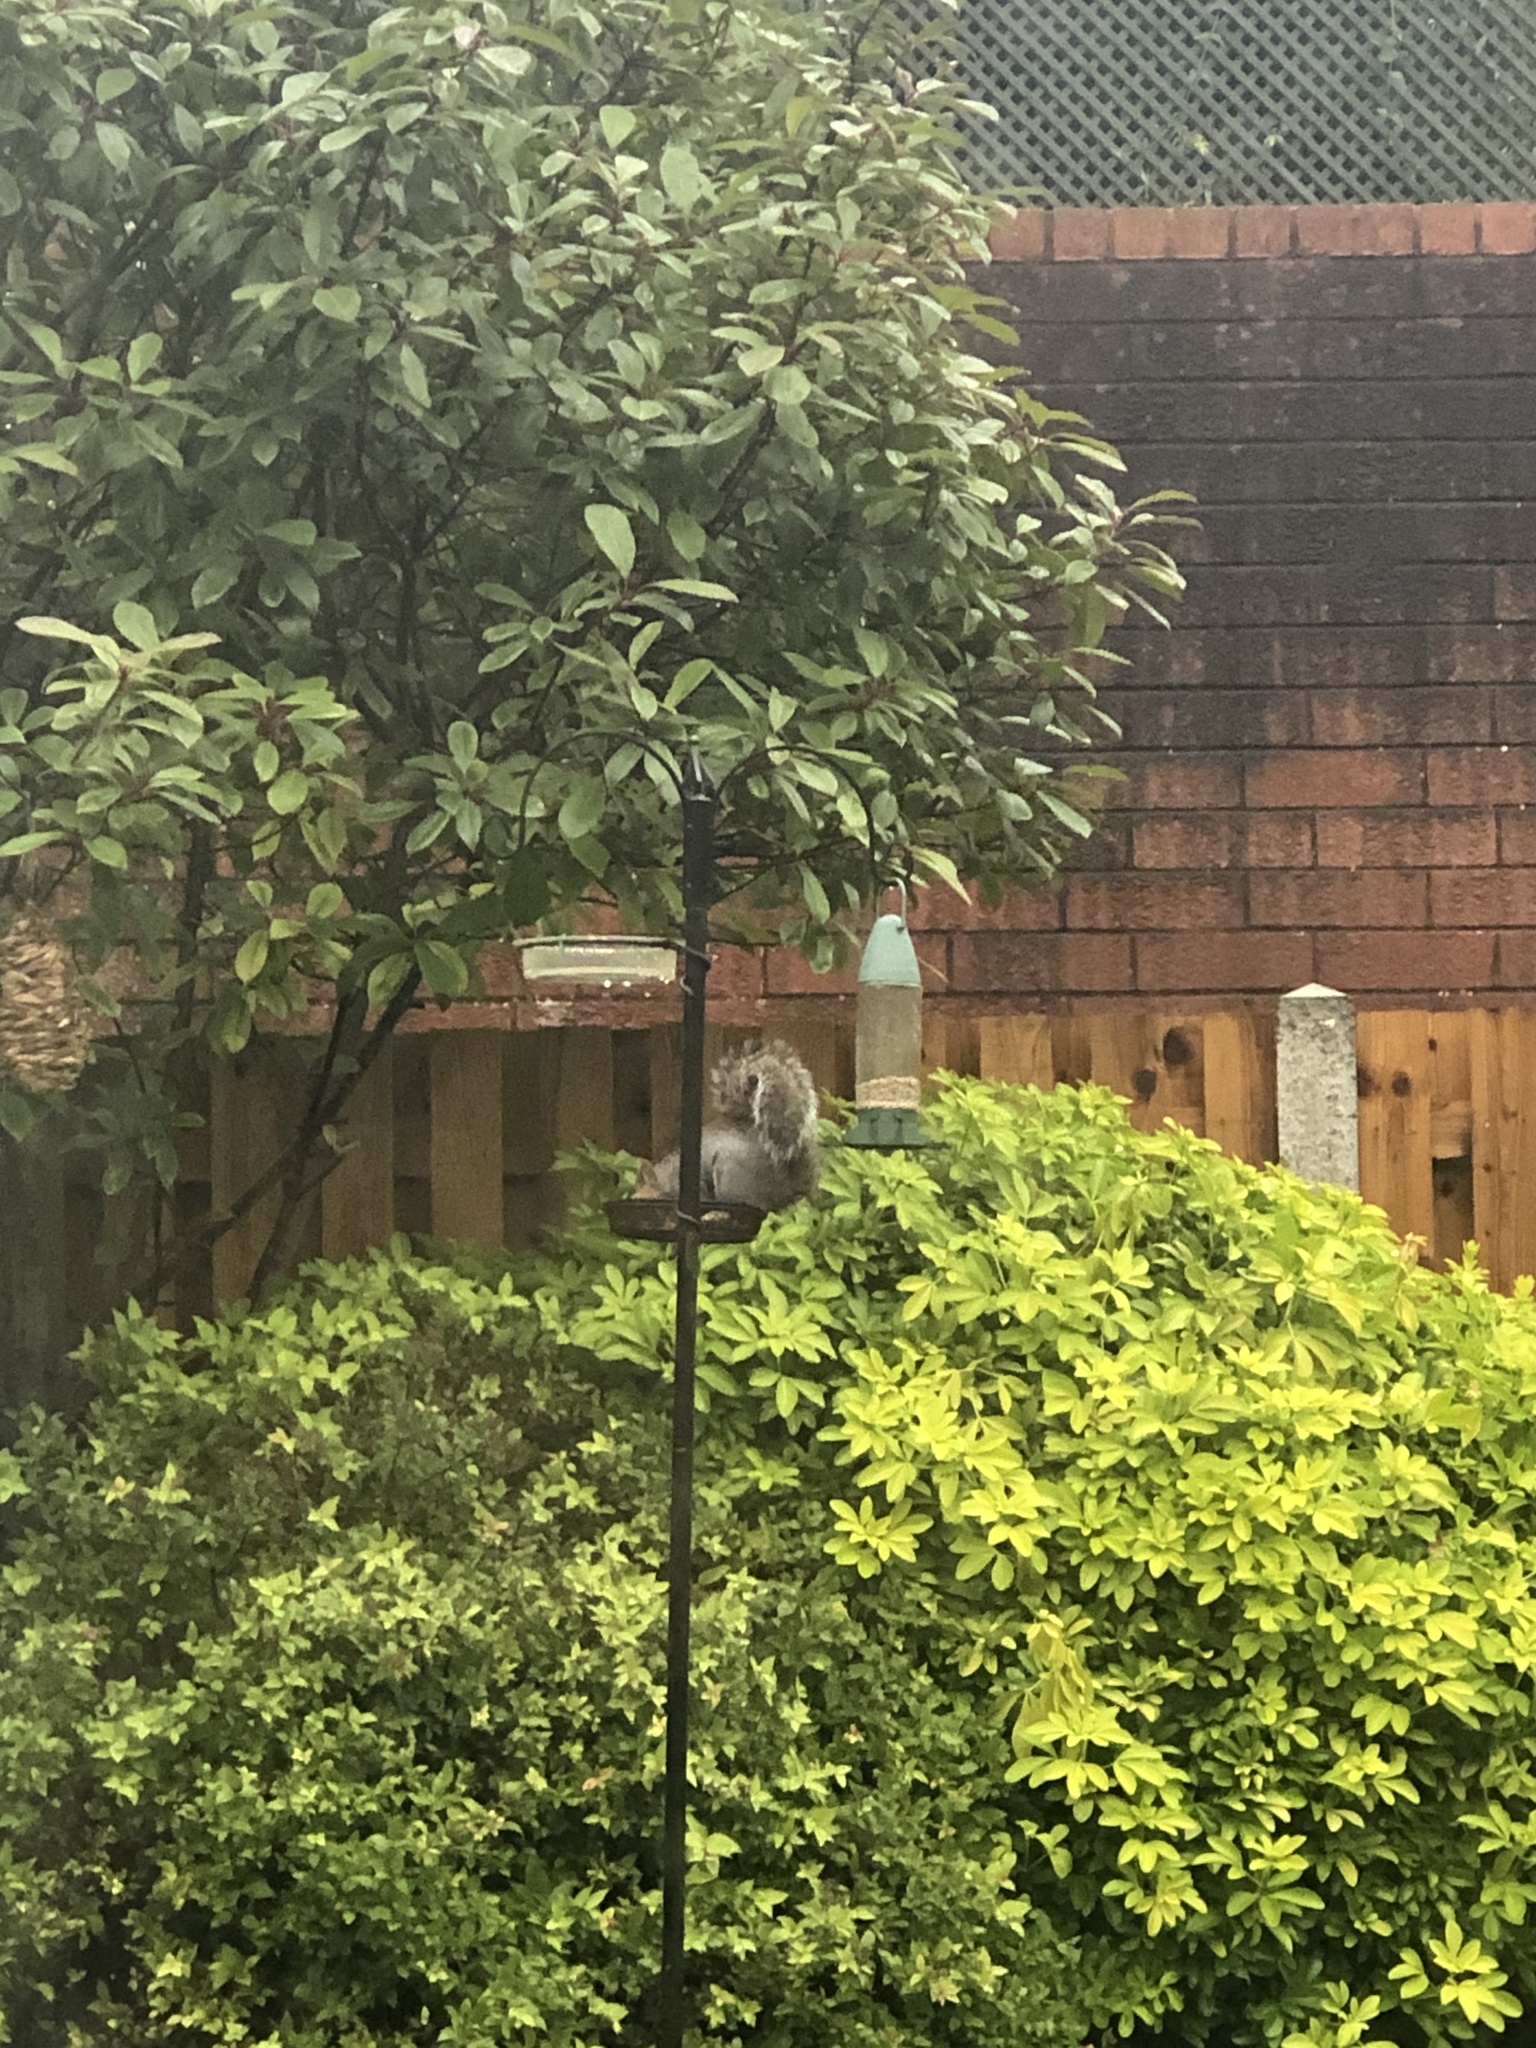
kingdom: Animalia
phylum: Chordata
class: Mammalia
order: Rodentia
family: Sciuridae
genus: Sciurus
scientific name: Sciurus carolinensis
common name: Eastern gray squirrel
